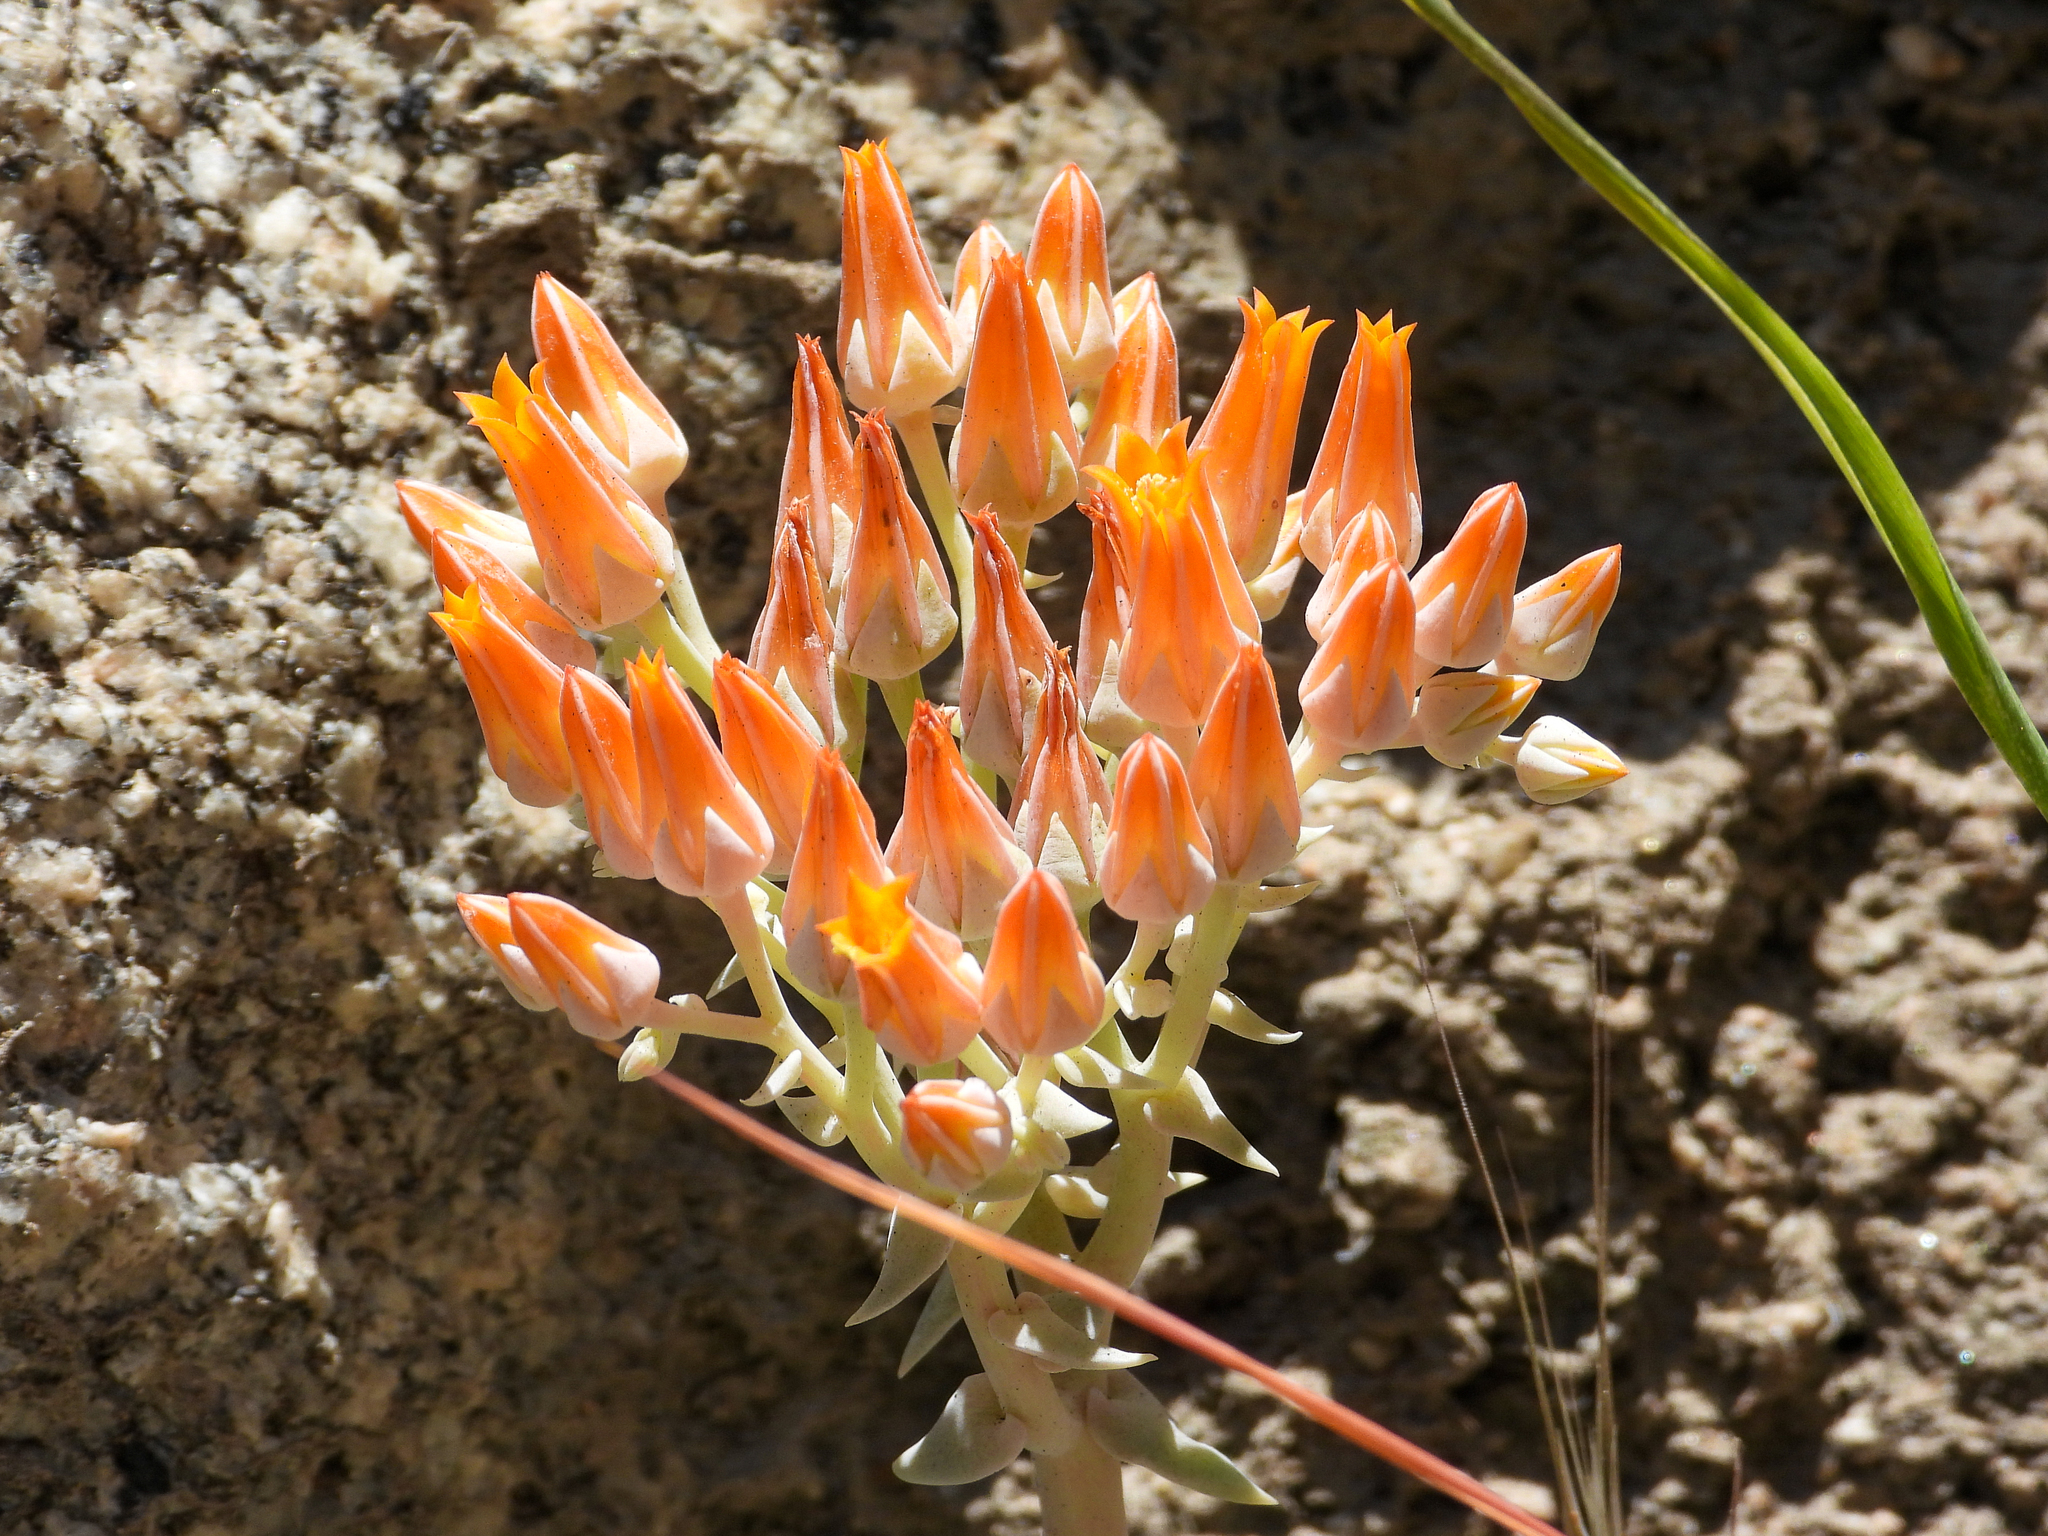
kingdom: Plantae
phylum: Tracheophyta
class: Magnoliopsida
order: Saxifragales
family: Crassulaceae
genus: Dudleya
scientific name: Dudleya cymosa
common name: Canyon dudleya
